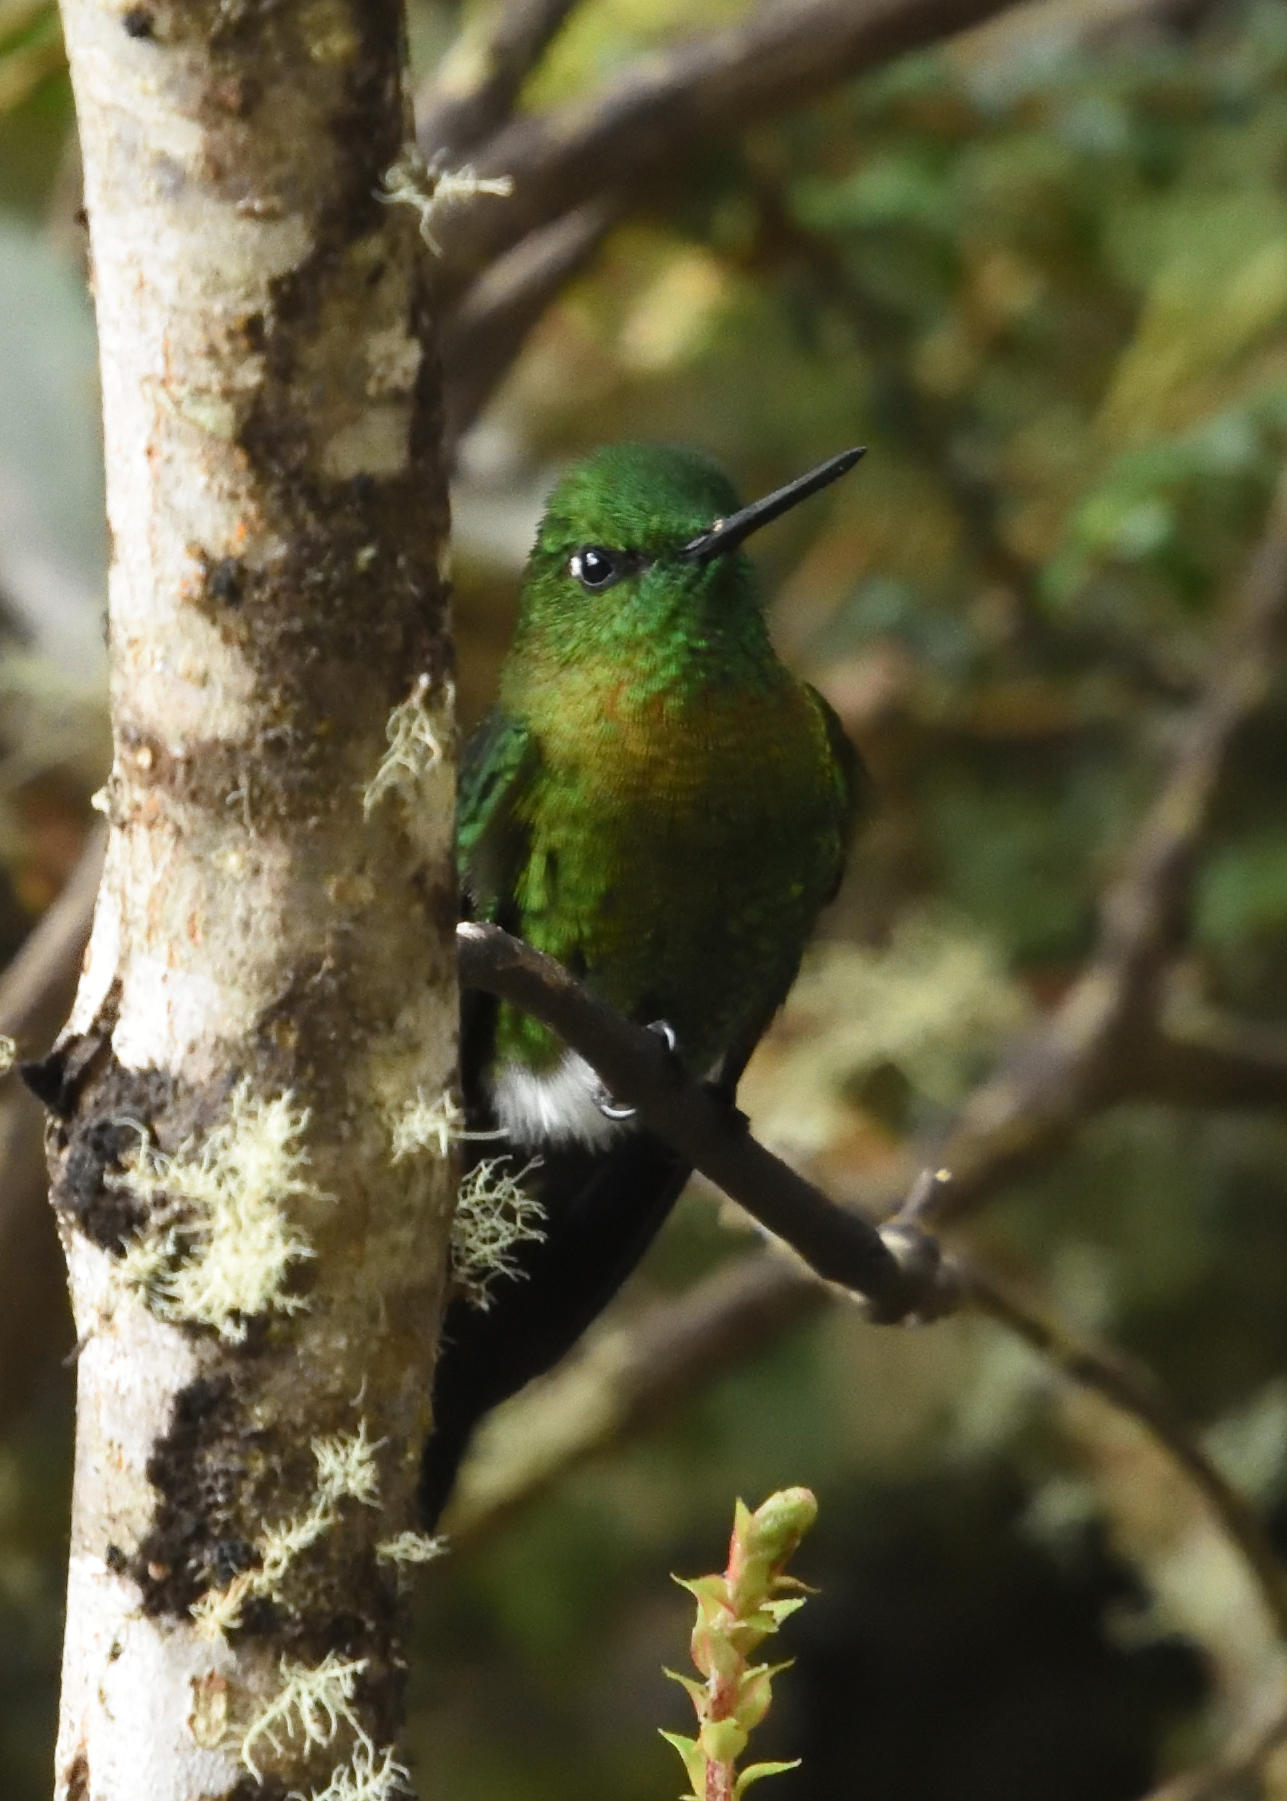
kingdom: Animalia
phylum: Chordata
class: Aves
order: Apodiformes
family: Trochilidae
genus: Eriocnemis
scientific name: Eriocnemis mosquera
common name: Golden-breasted puffleg
